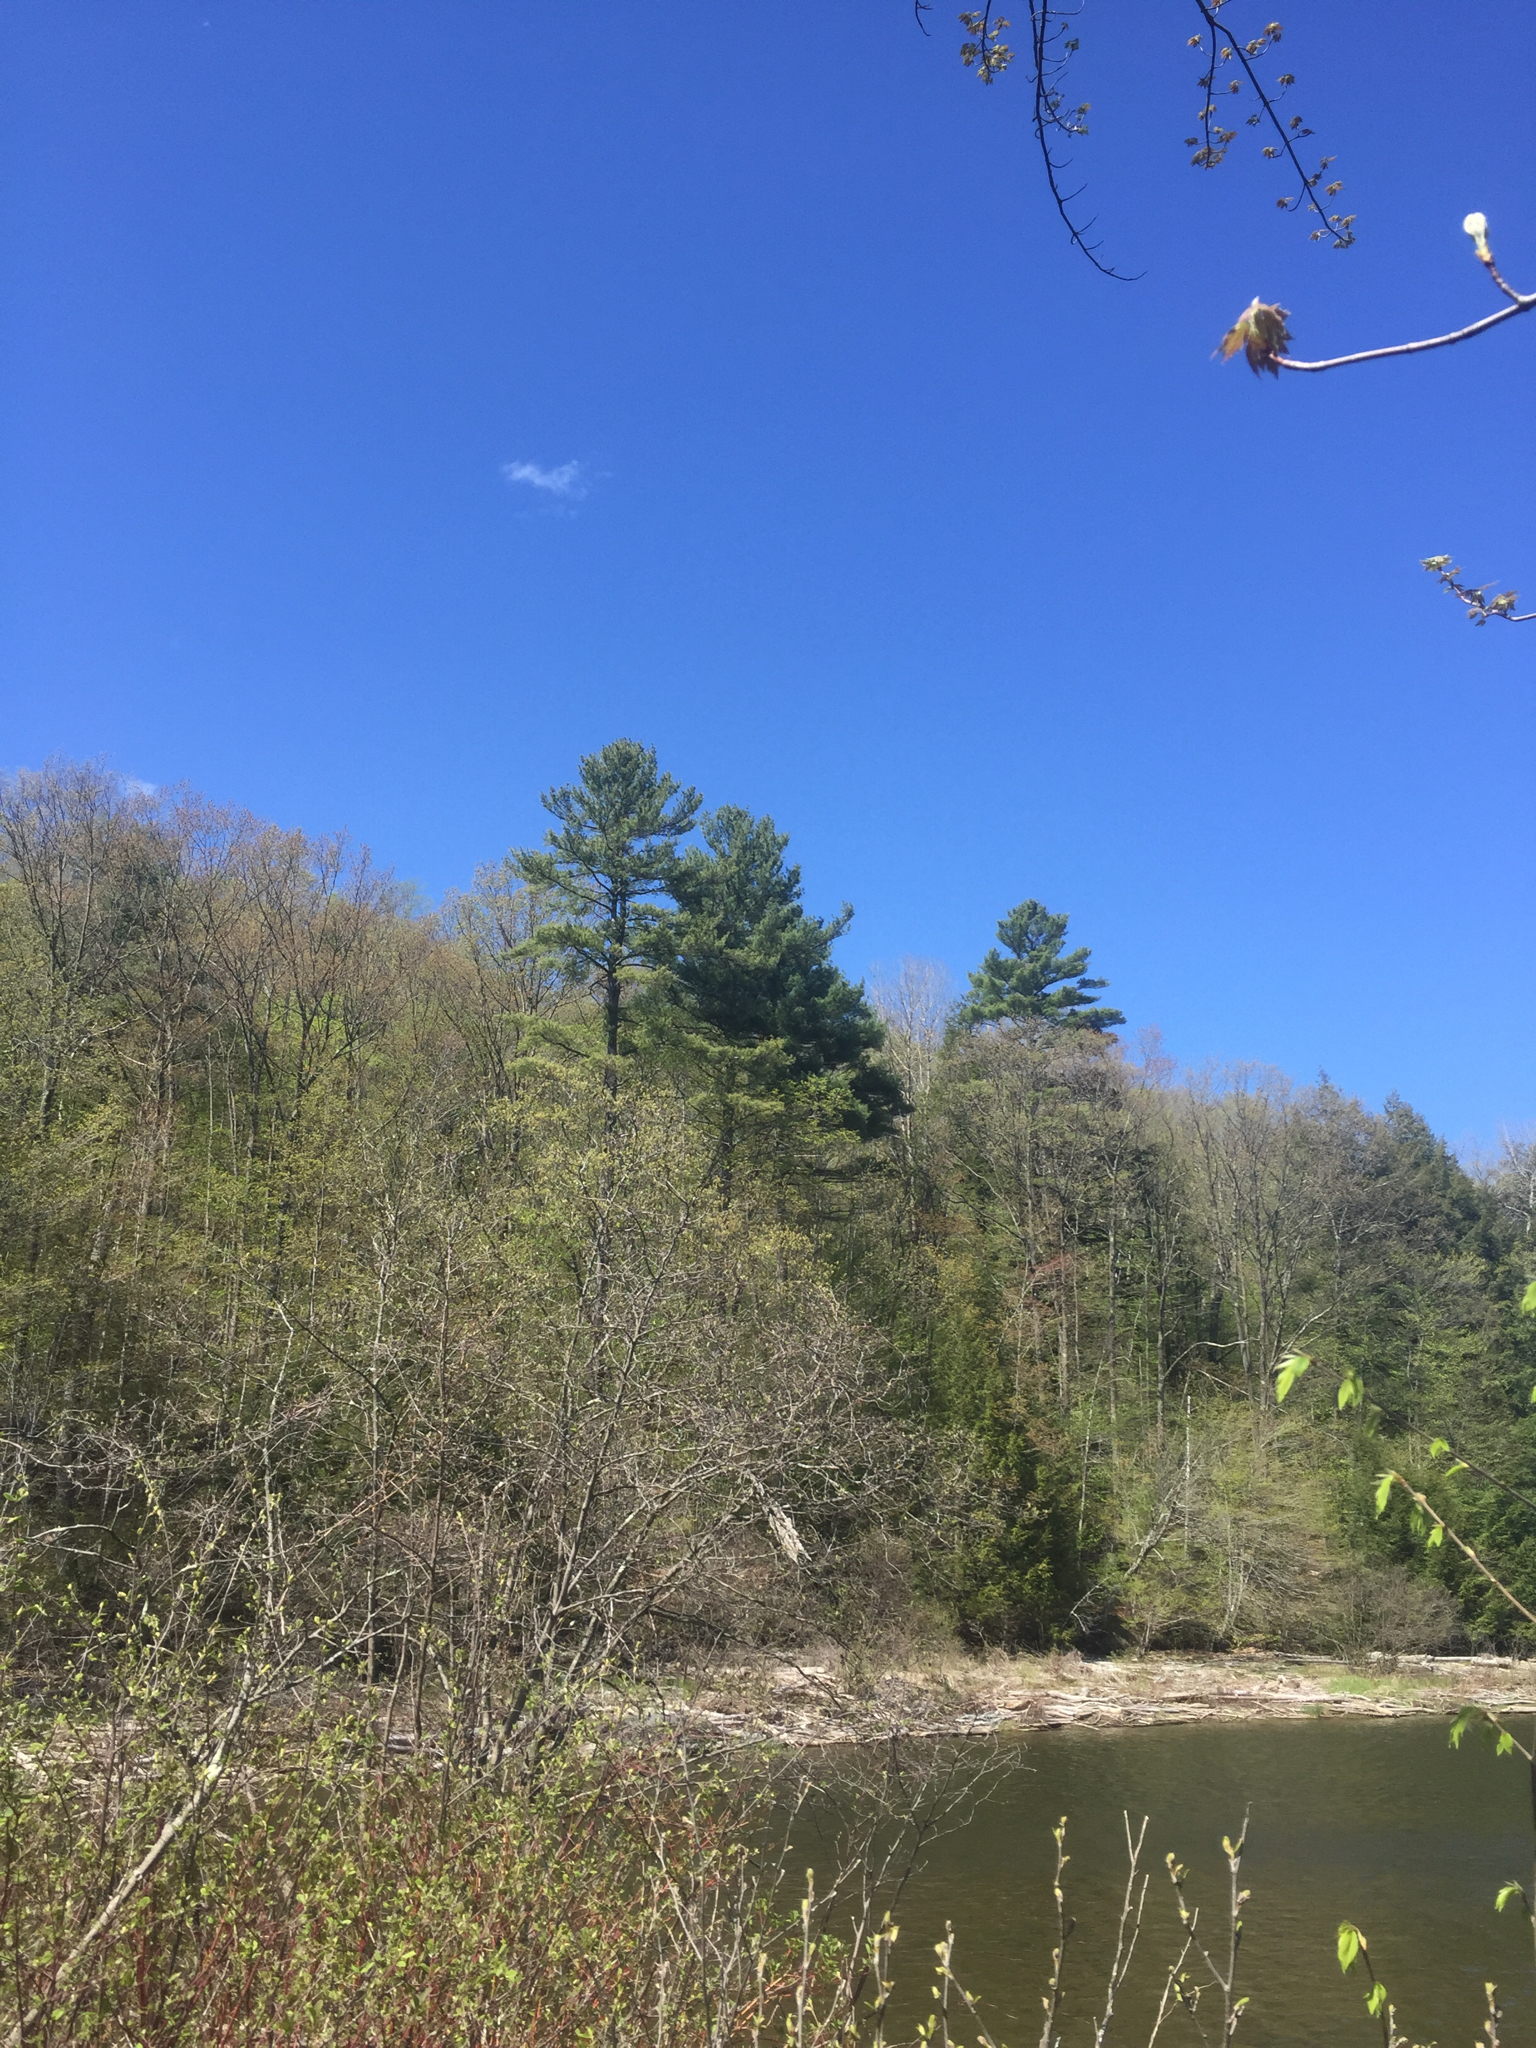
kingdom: Plantae
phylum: Tracheophyta
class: Pinopsida
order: Pinales
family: Pinaceae
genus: Pinus
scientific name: Pinus strobus
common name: Weymouth pine
